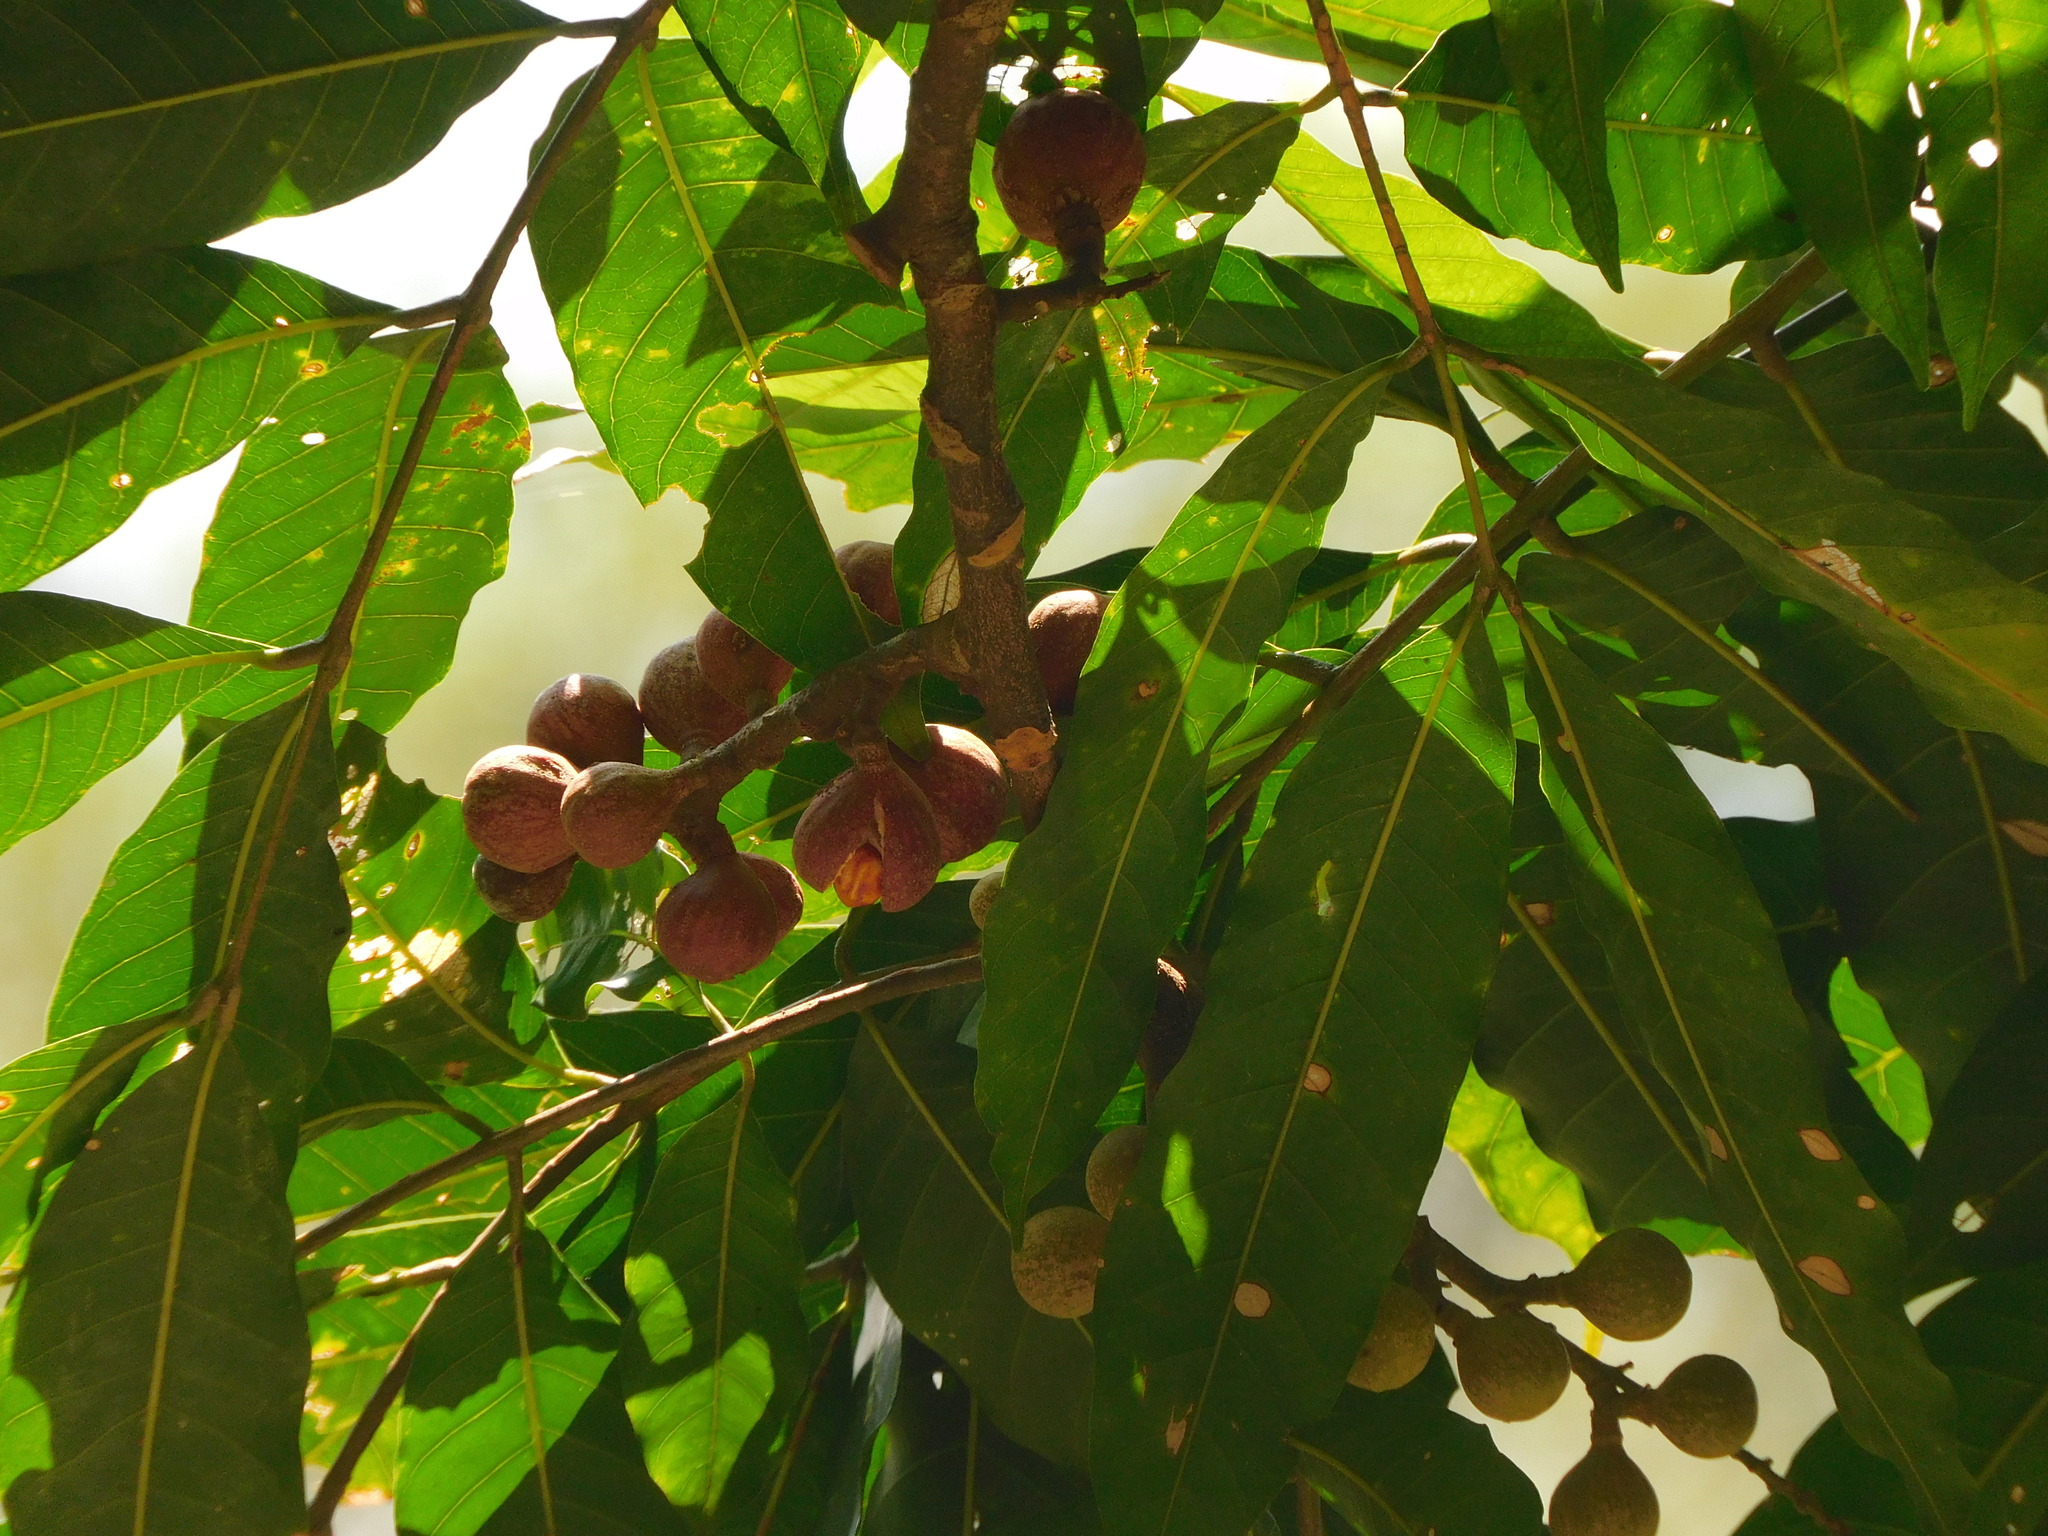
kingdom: Plantae
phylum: Tracheophyta
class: Magnoliopsida
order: Sapindales
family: Meliaceae
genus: Guarea
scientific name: Guarea guidonia
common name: American muskwood
